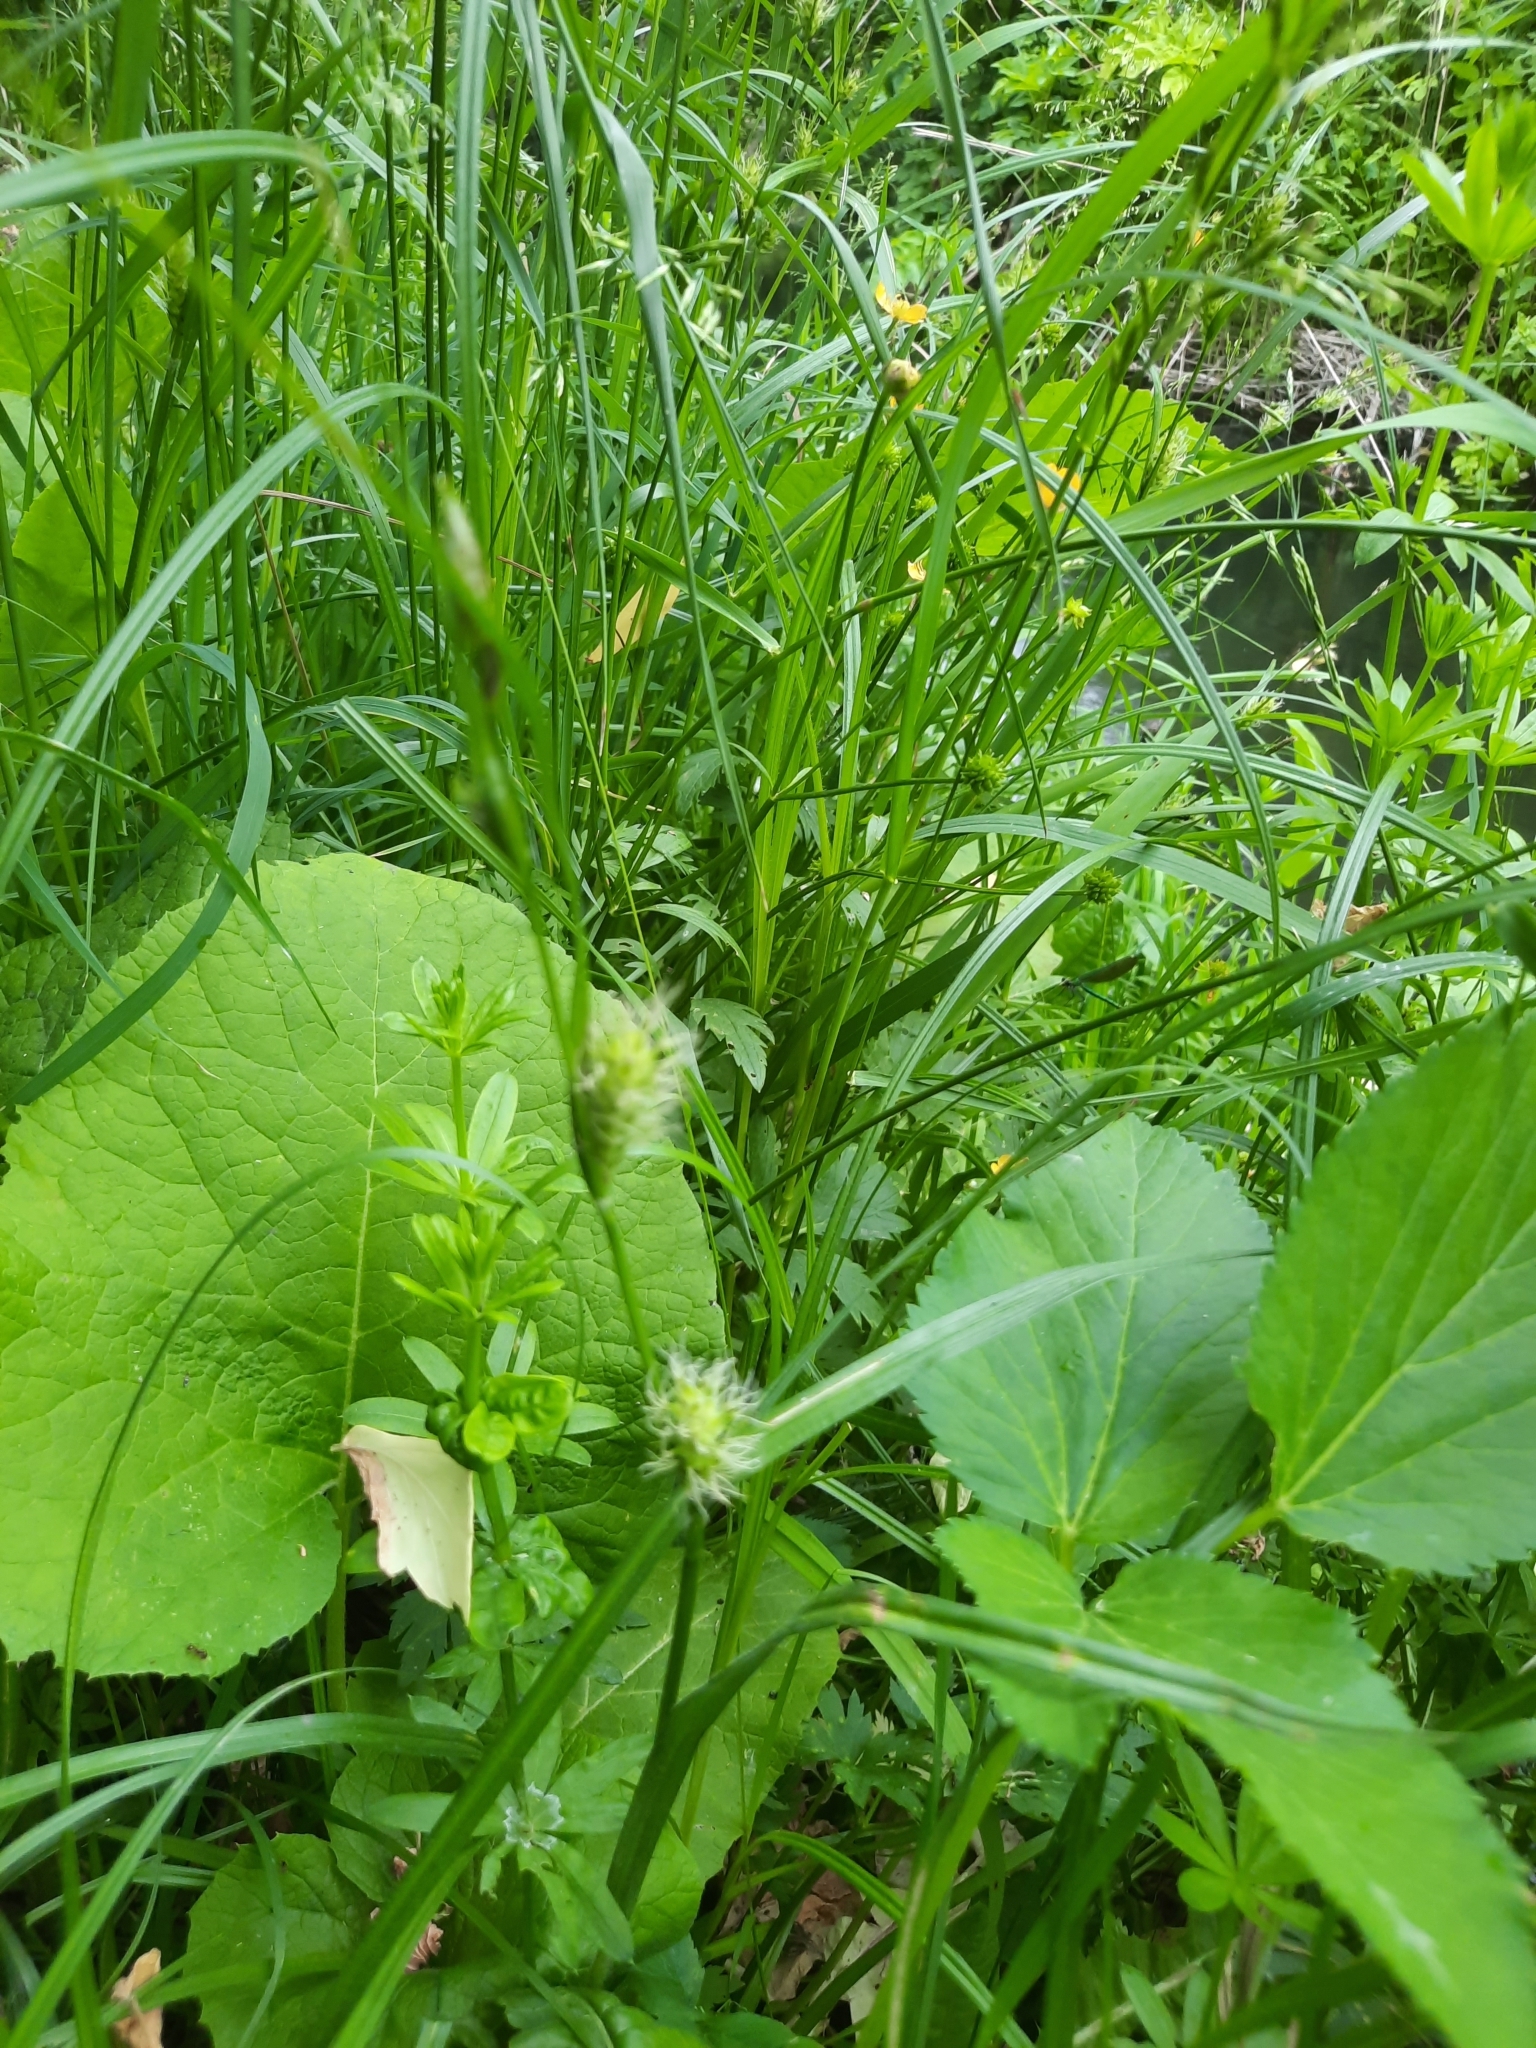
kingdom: Plantae
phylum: Tracheophyta
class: Liliopsida
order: Poales
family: Cyperaceae
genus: Carex
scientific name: Carex hirta
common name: Hairy sedge
